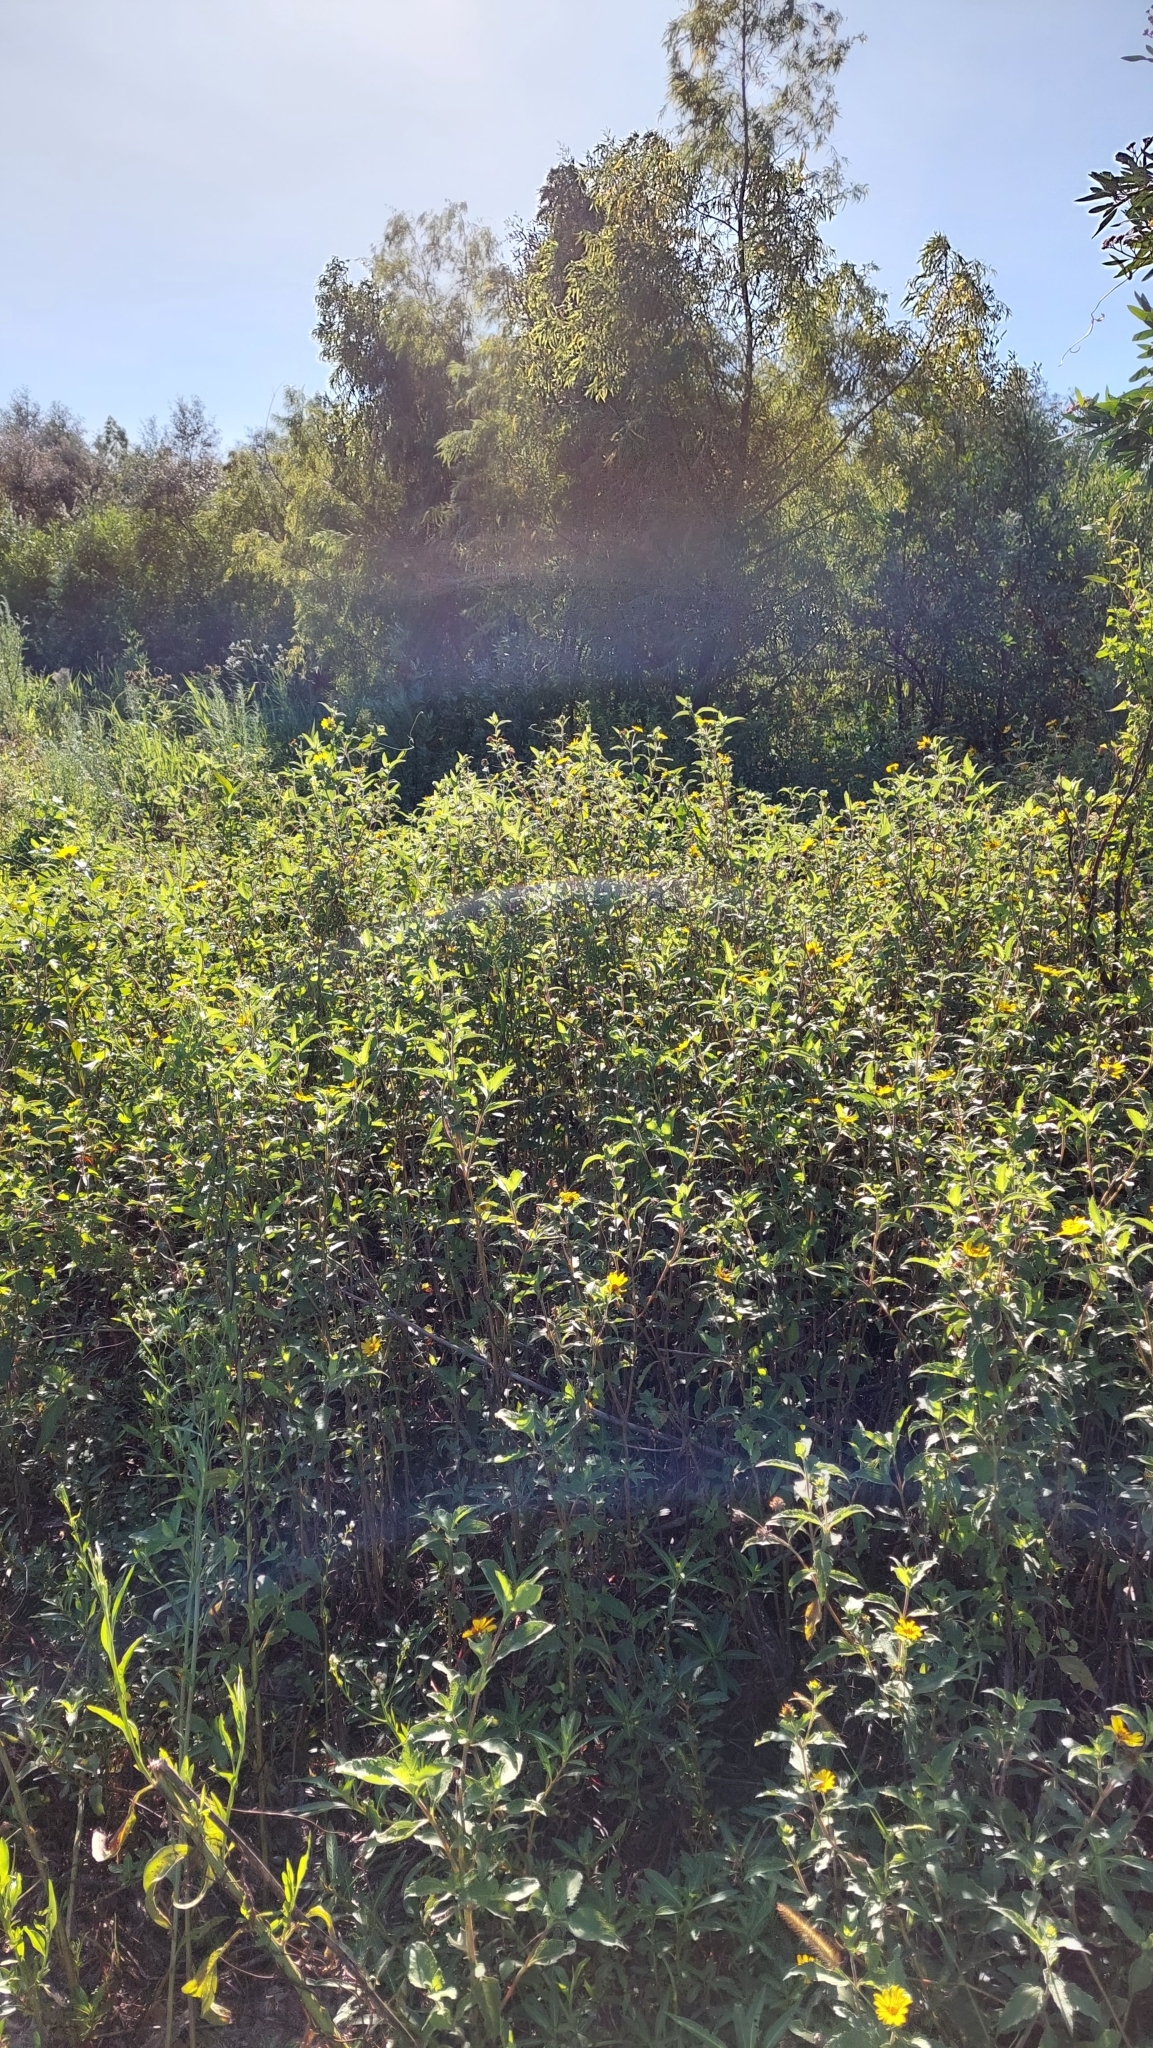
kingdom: Plantae
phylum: Tracheophyta
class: Magnoliopsida
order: Asterales
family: Asteraceae
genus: Wedelia
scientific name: Wedelia silphioides
